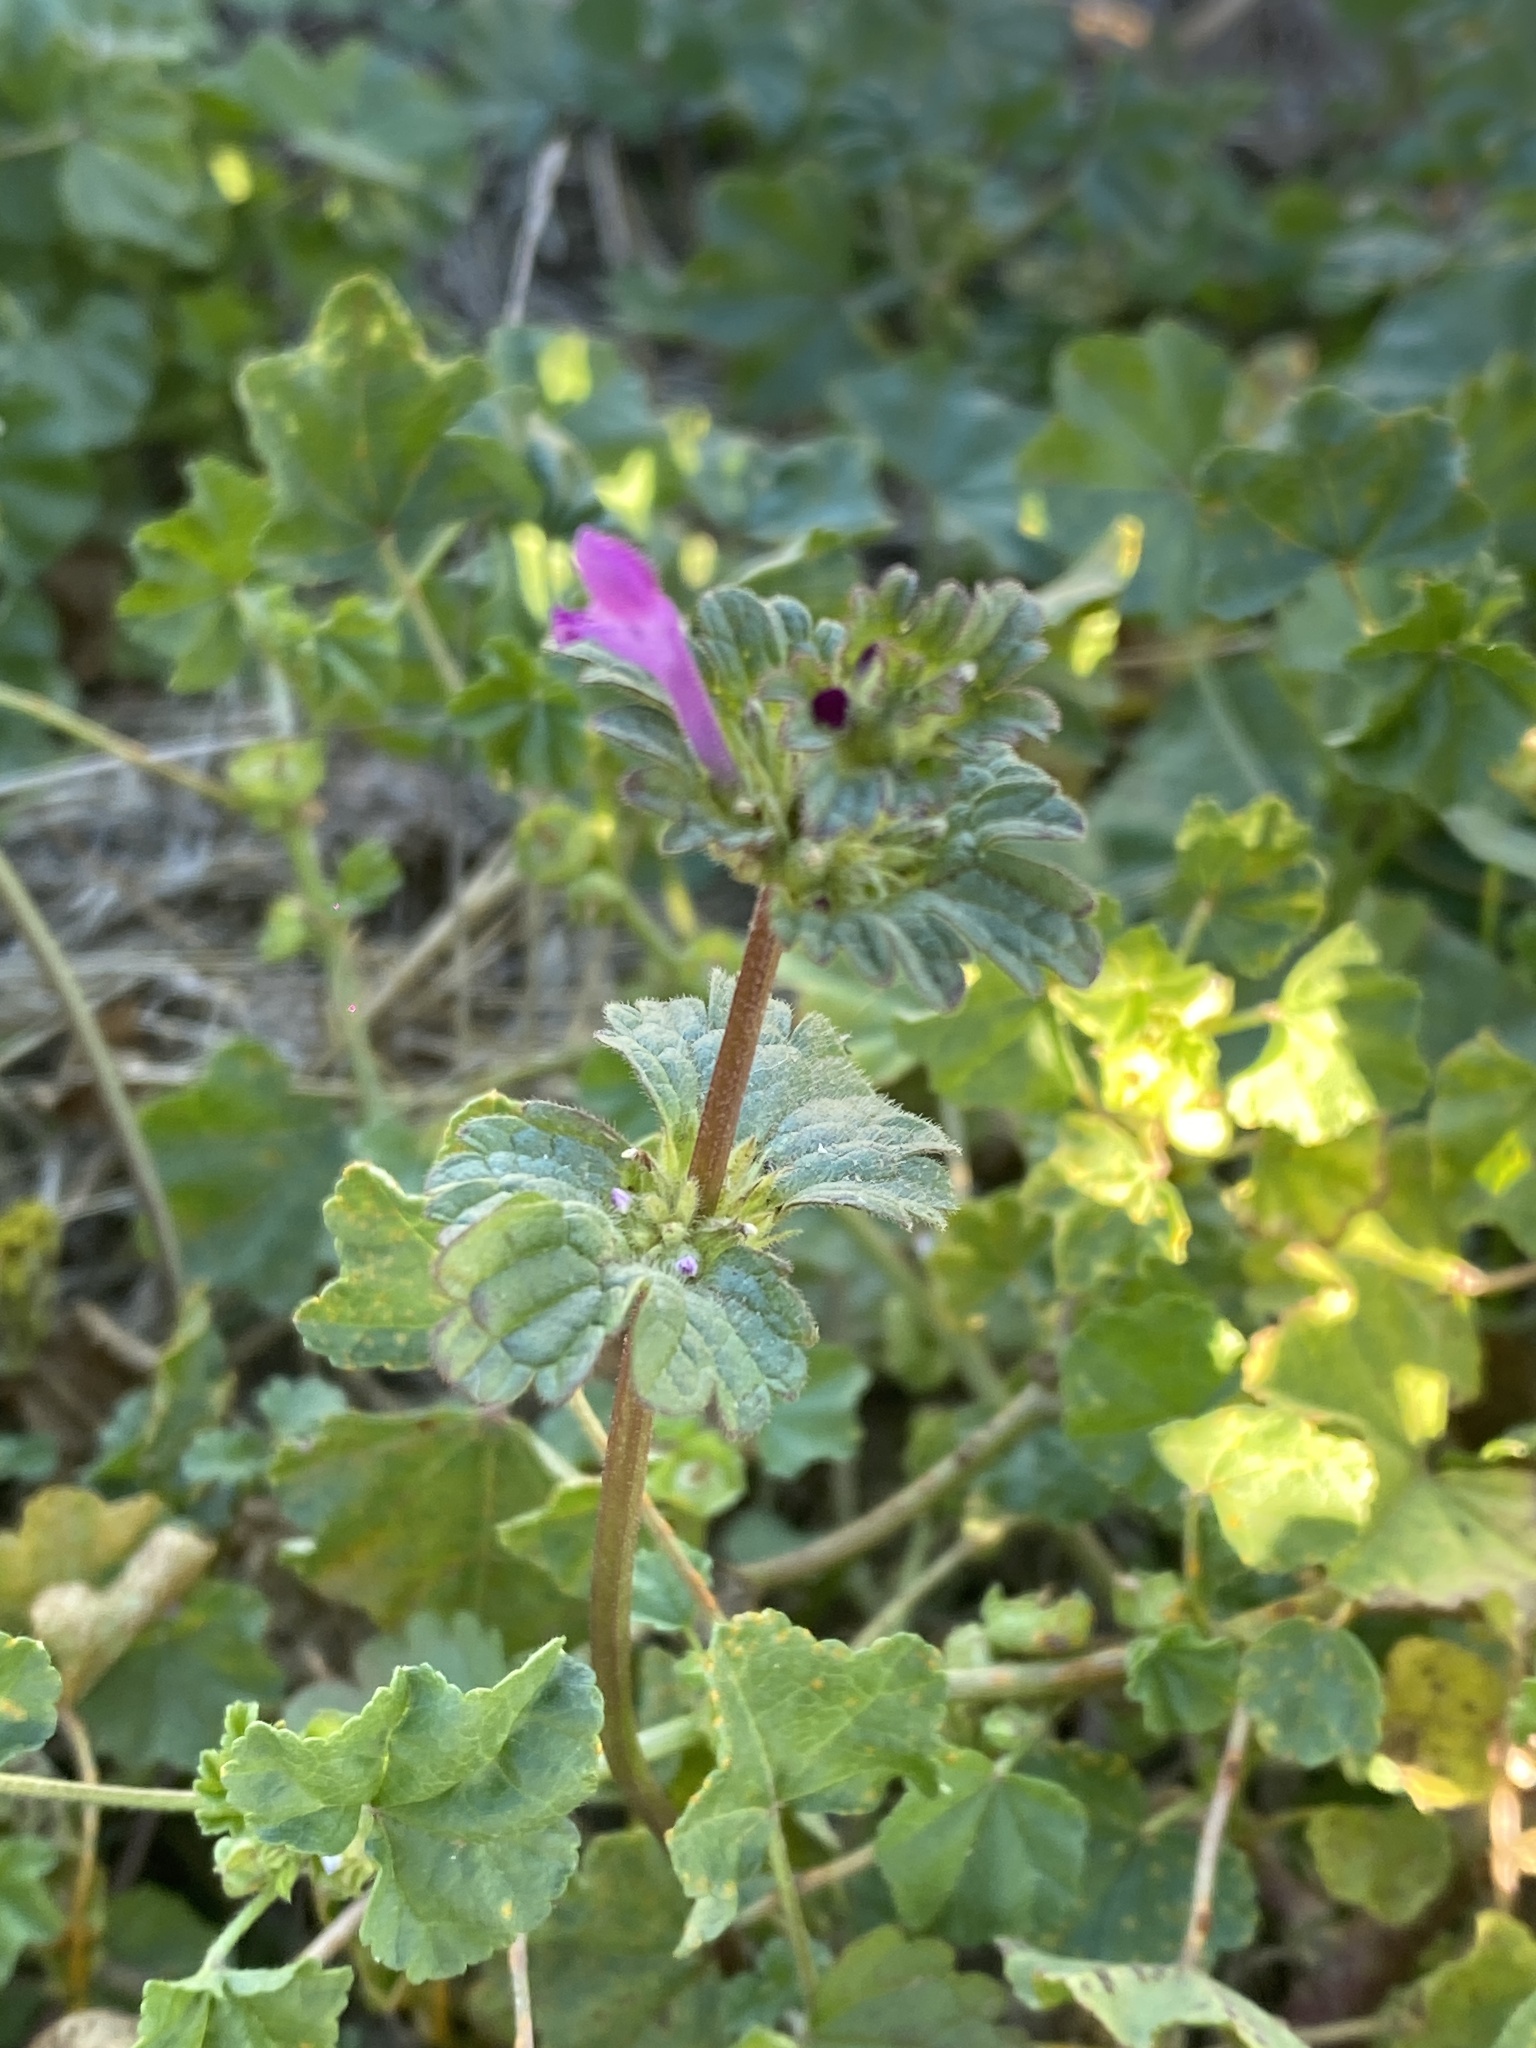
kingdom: Plantae
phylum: Tracheophyta
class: Magnoliopsida
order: Lamiales
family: Lamiaceae
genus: Lamium
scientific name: Lamium amplexicaule
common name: Henbit dead-nettle
